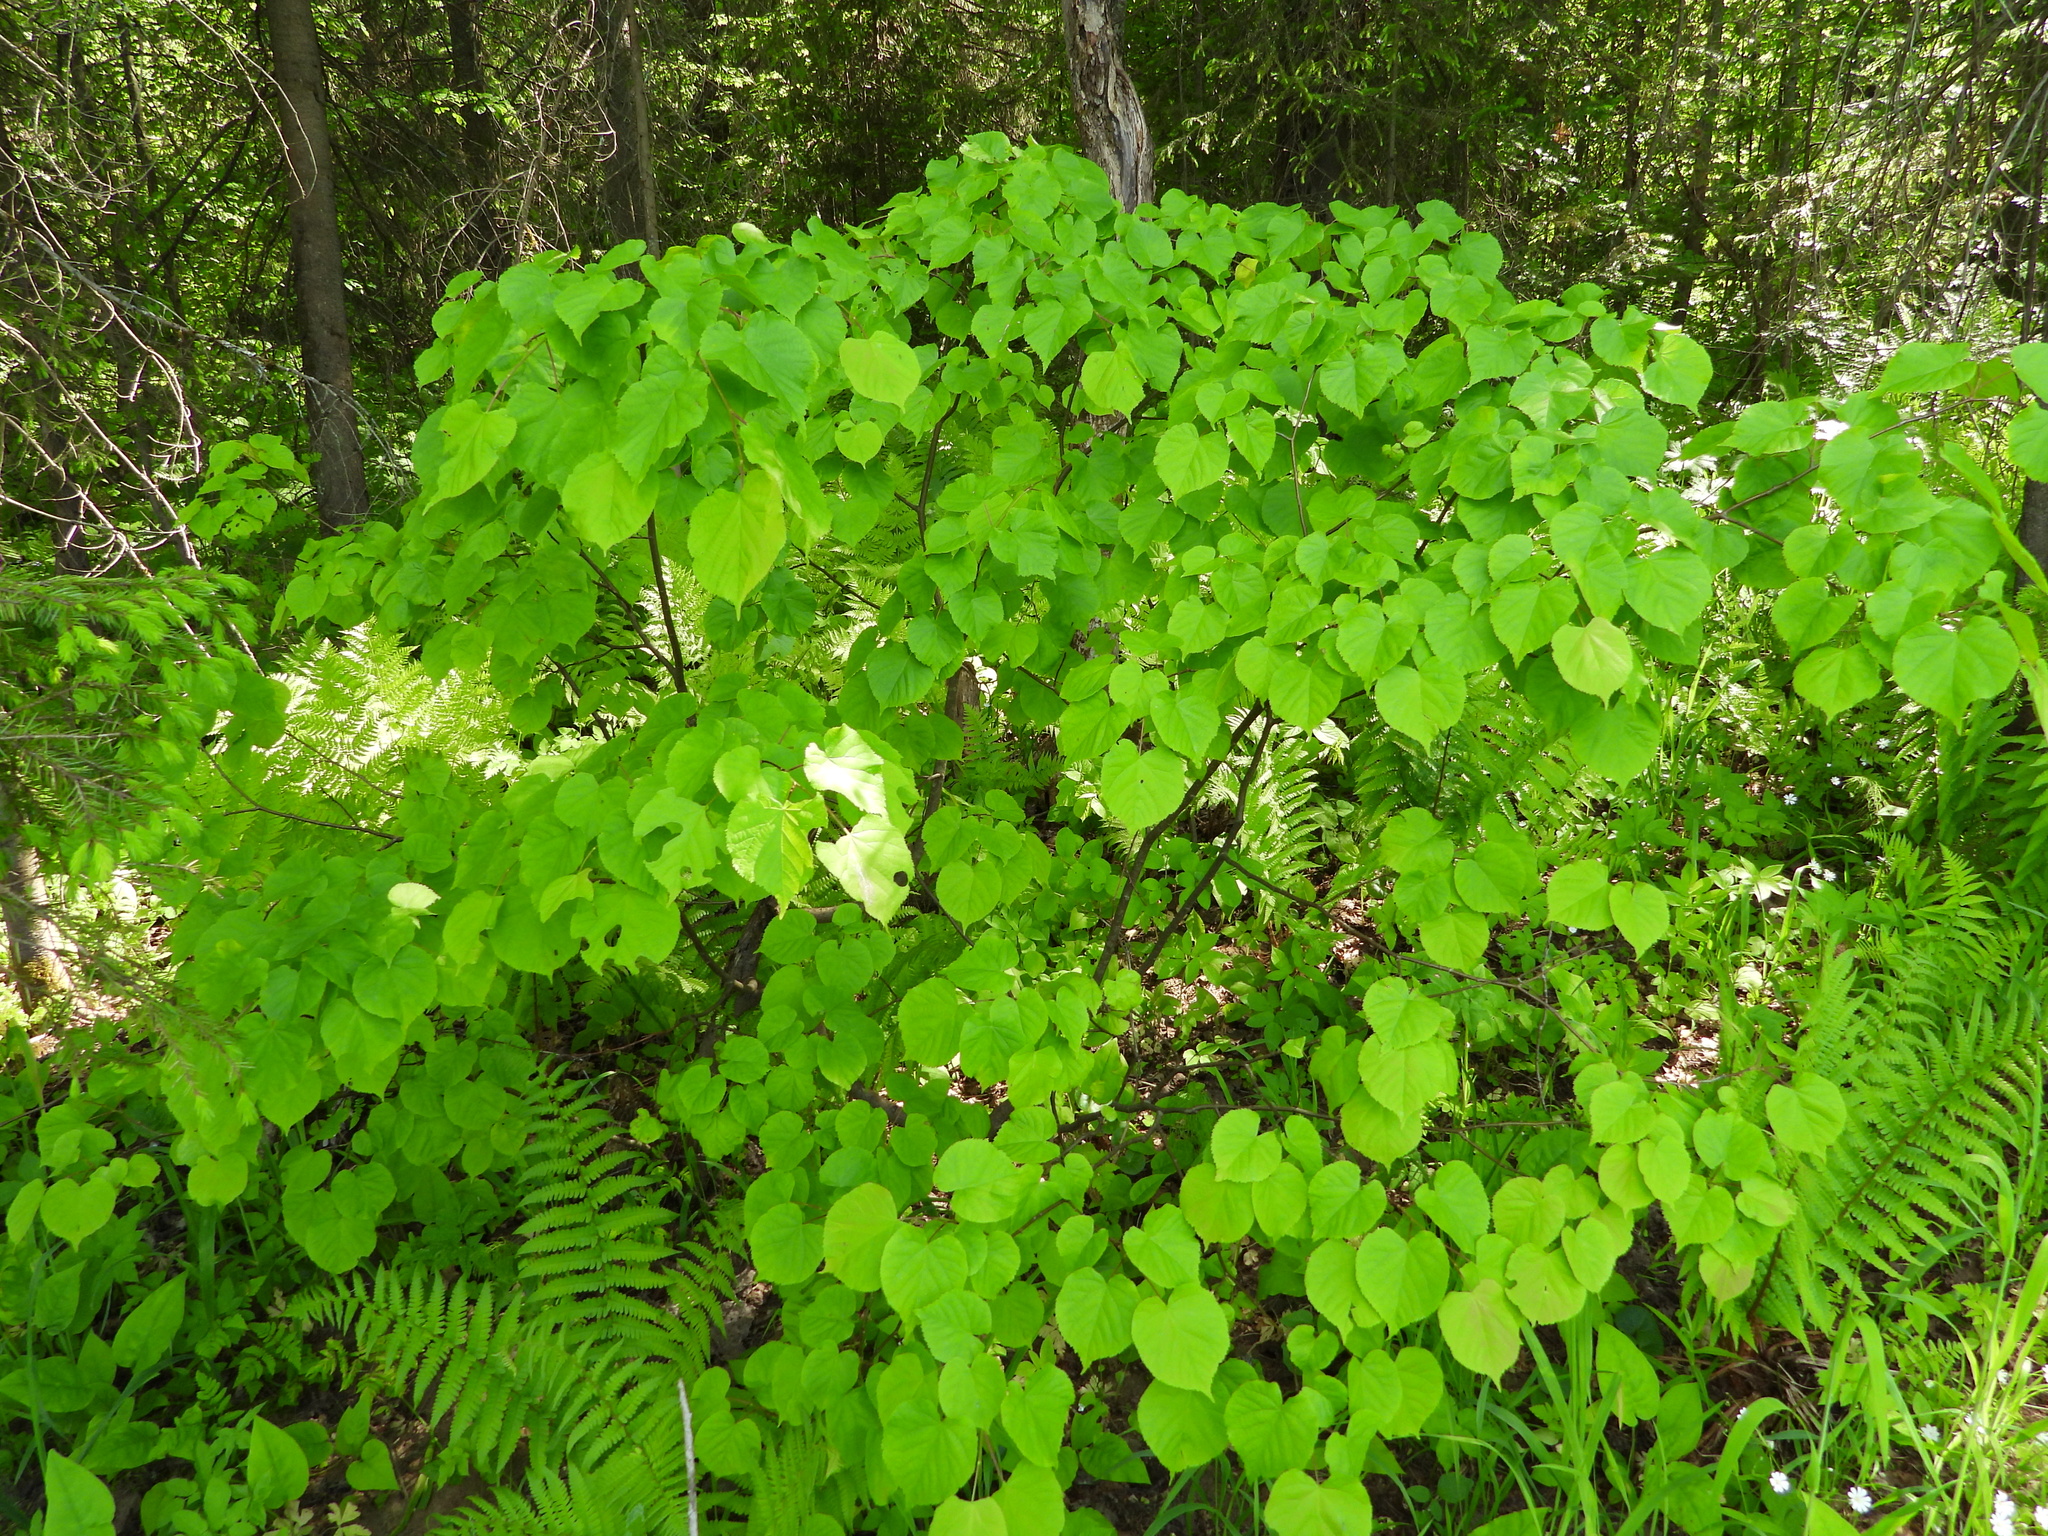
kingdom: Plantae
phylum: Tracheophyta
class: Magnoliopsida
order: Malvales
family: Malvaceae
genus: Tilia
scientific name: Tilia cordata
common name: Small-leaved lime
